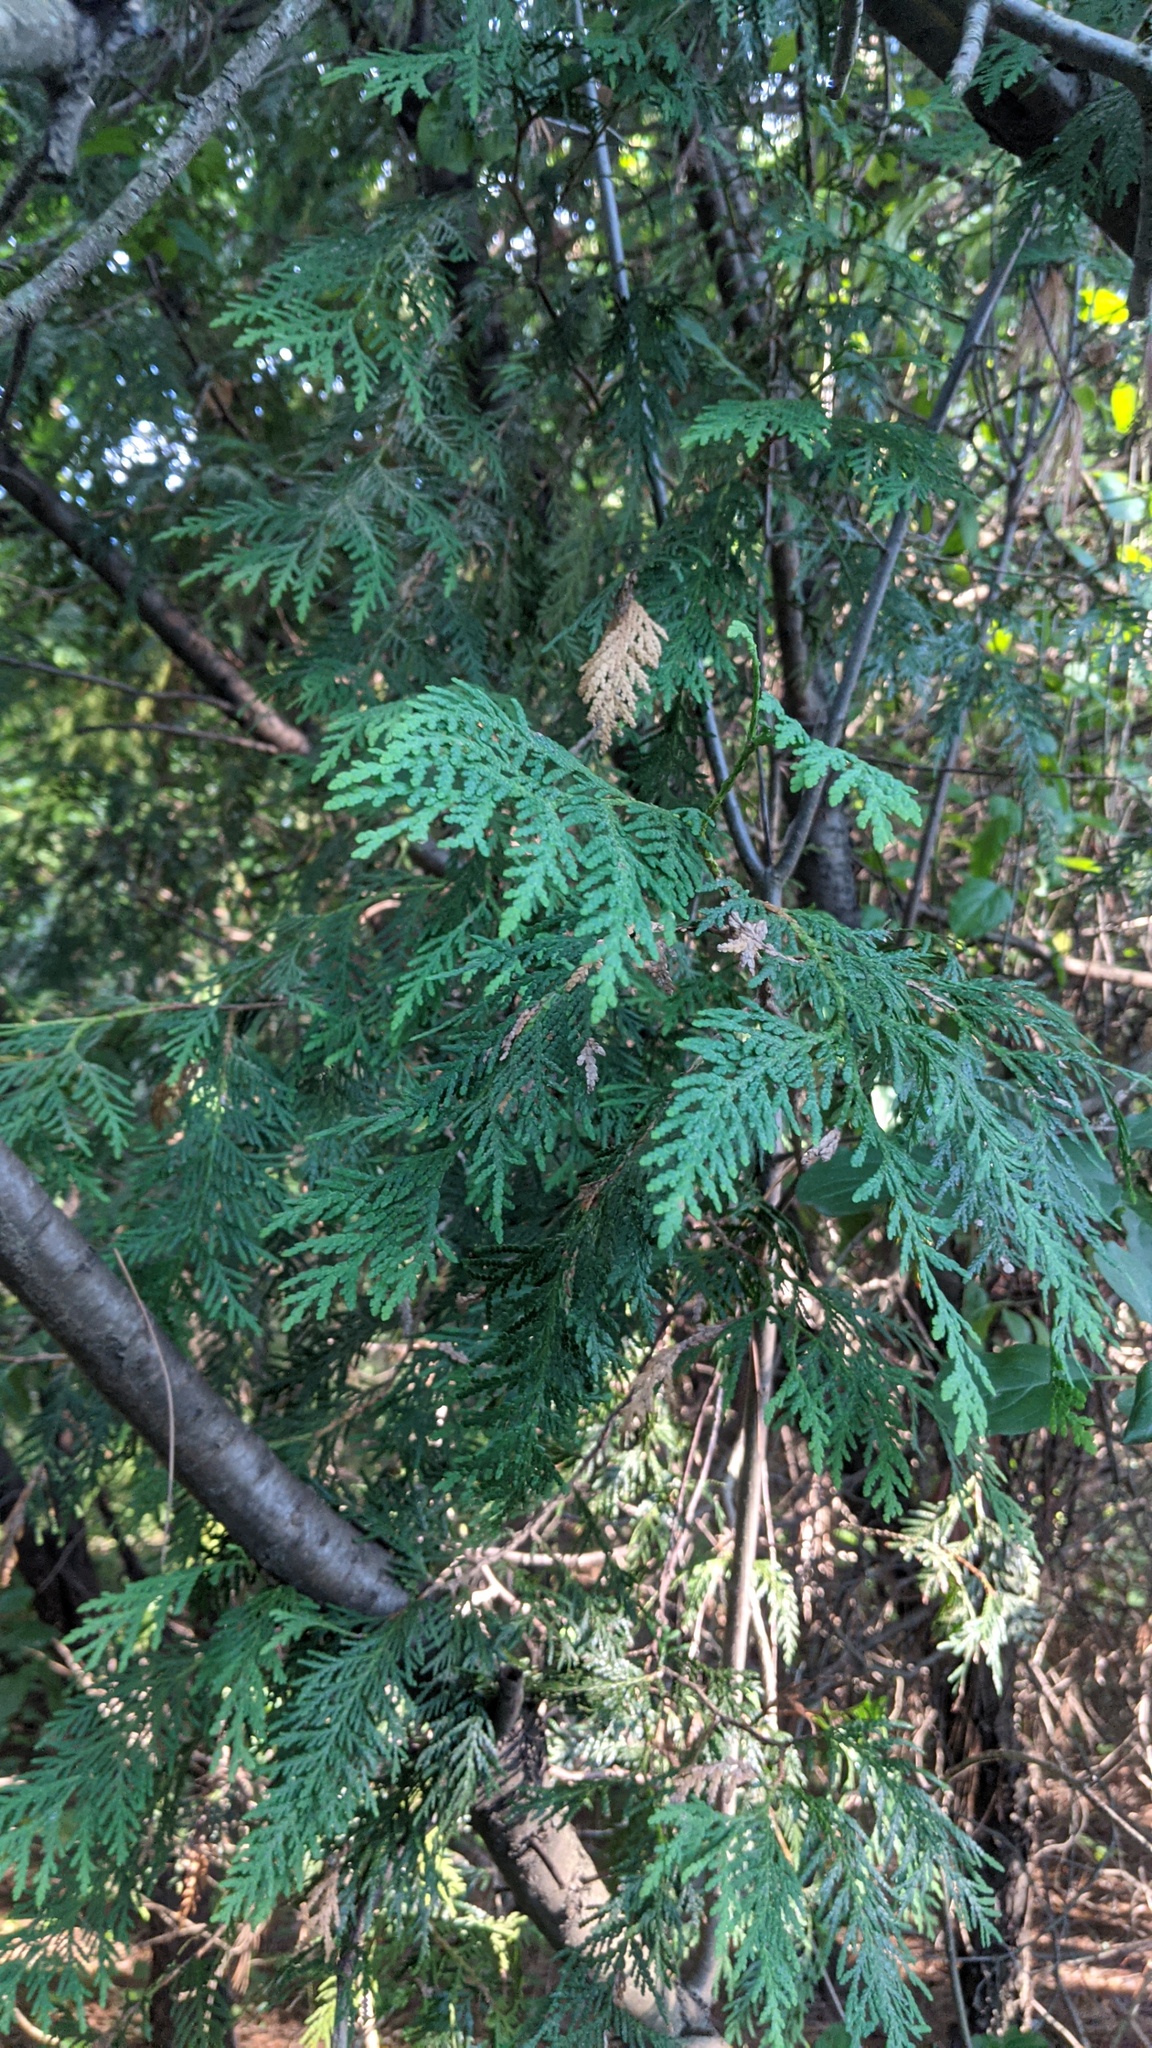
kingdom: Plantae
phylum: Tracheophyta
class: Pinopsida
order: Pinales
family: Cupressaceae
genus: Thuja
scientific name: Thuja occidentalis
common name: Northern white-cedar
